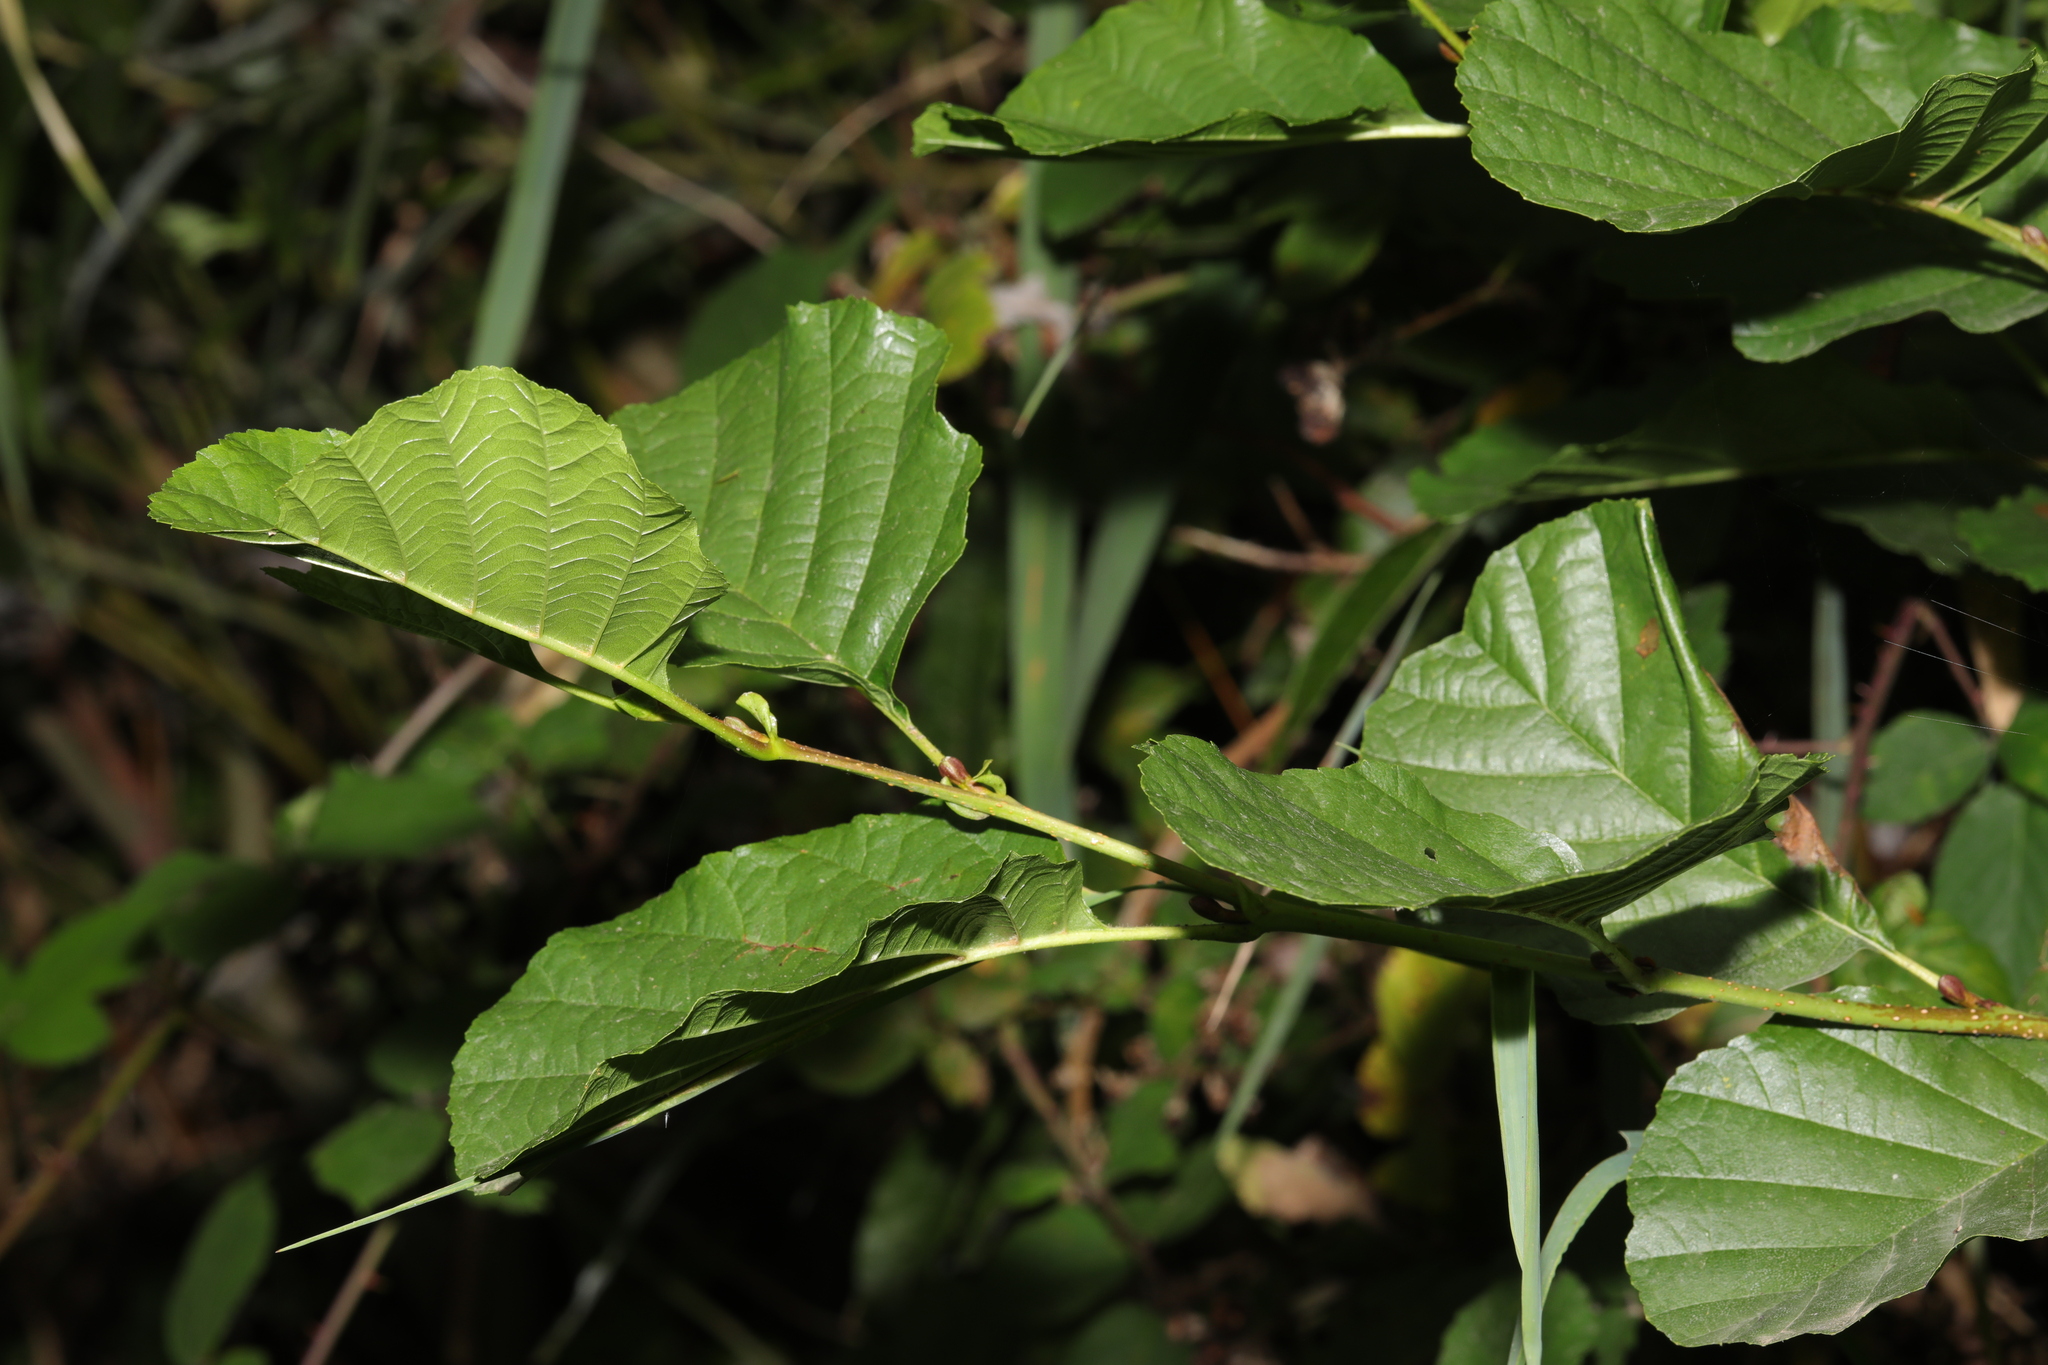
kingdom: Plantae
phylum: Tracheophyta
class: Magnoliopsida
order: Fagales
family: Betulaceae
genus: Alnus
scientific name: Alnus glutinosa
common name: Black alder
